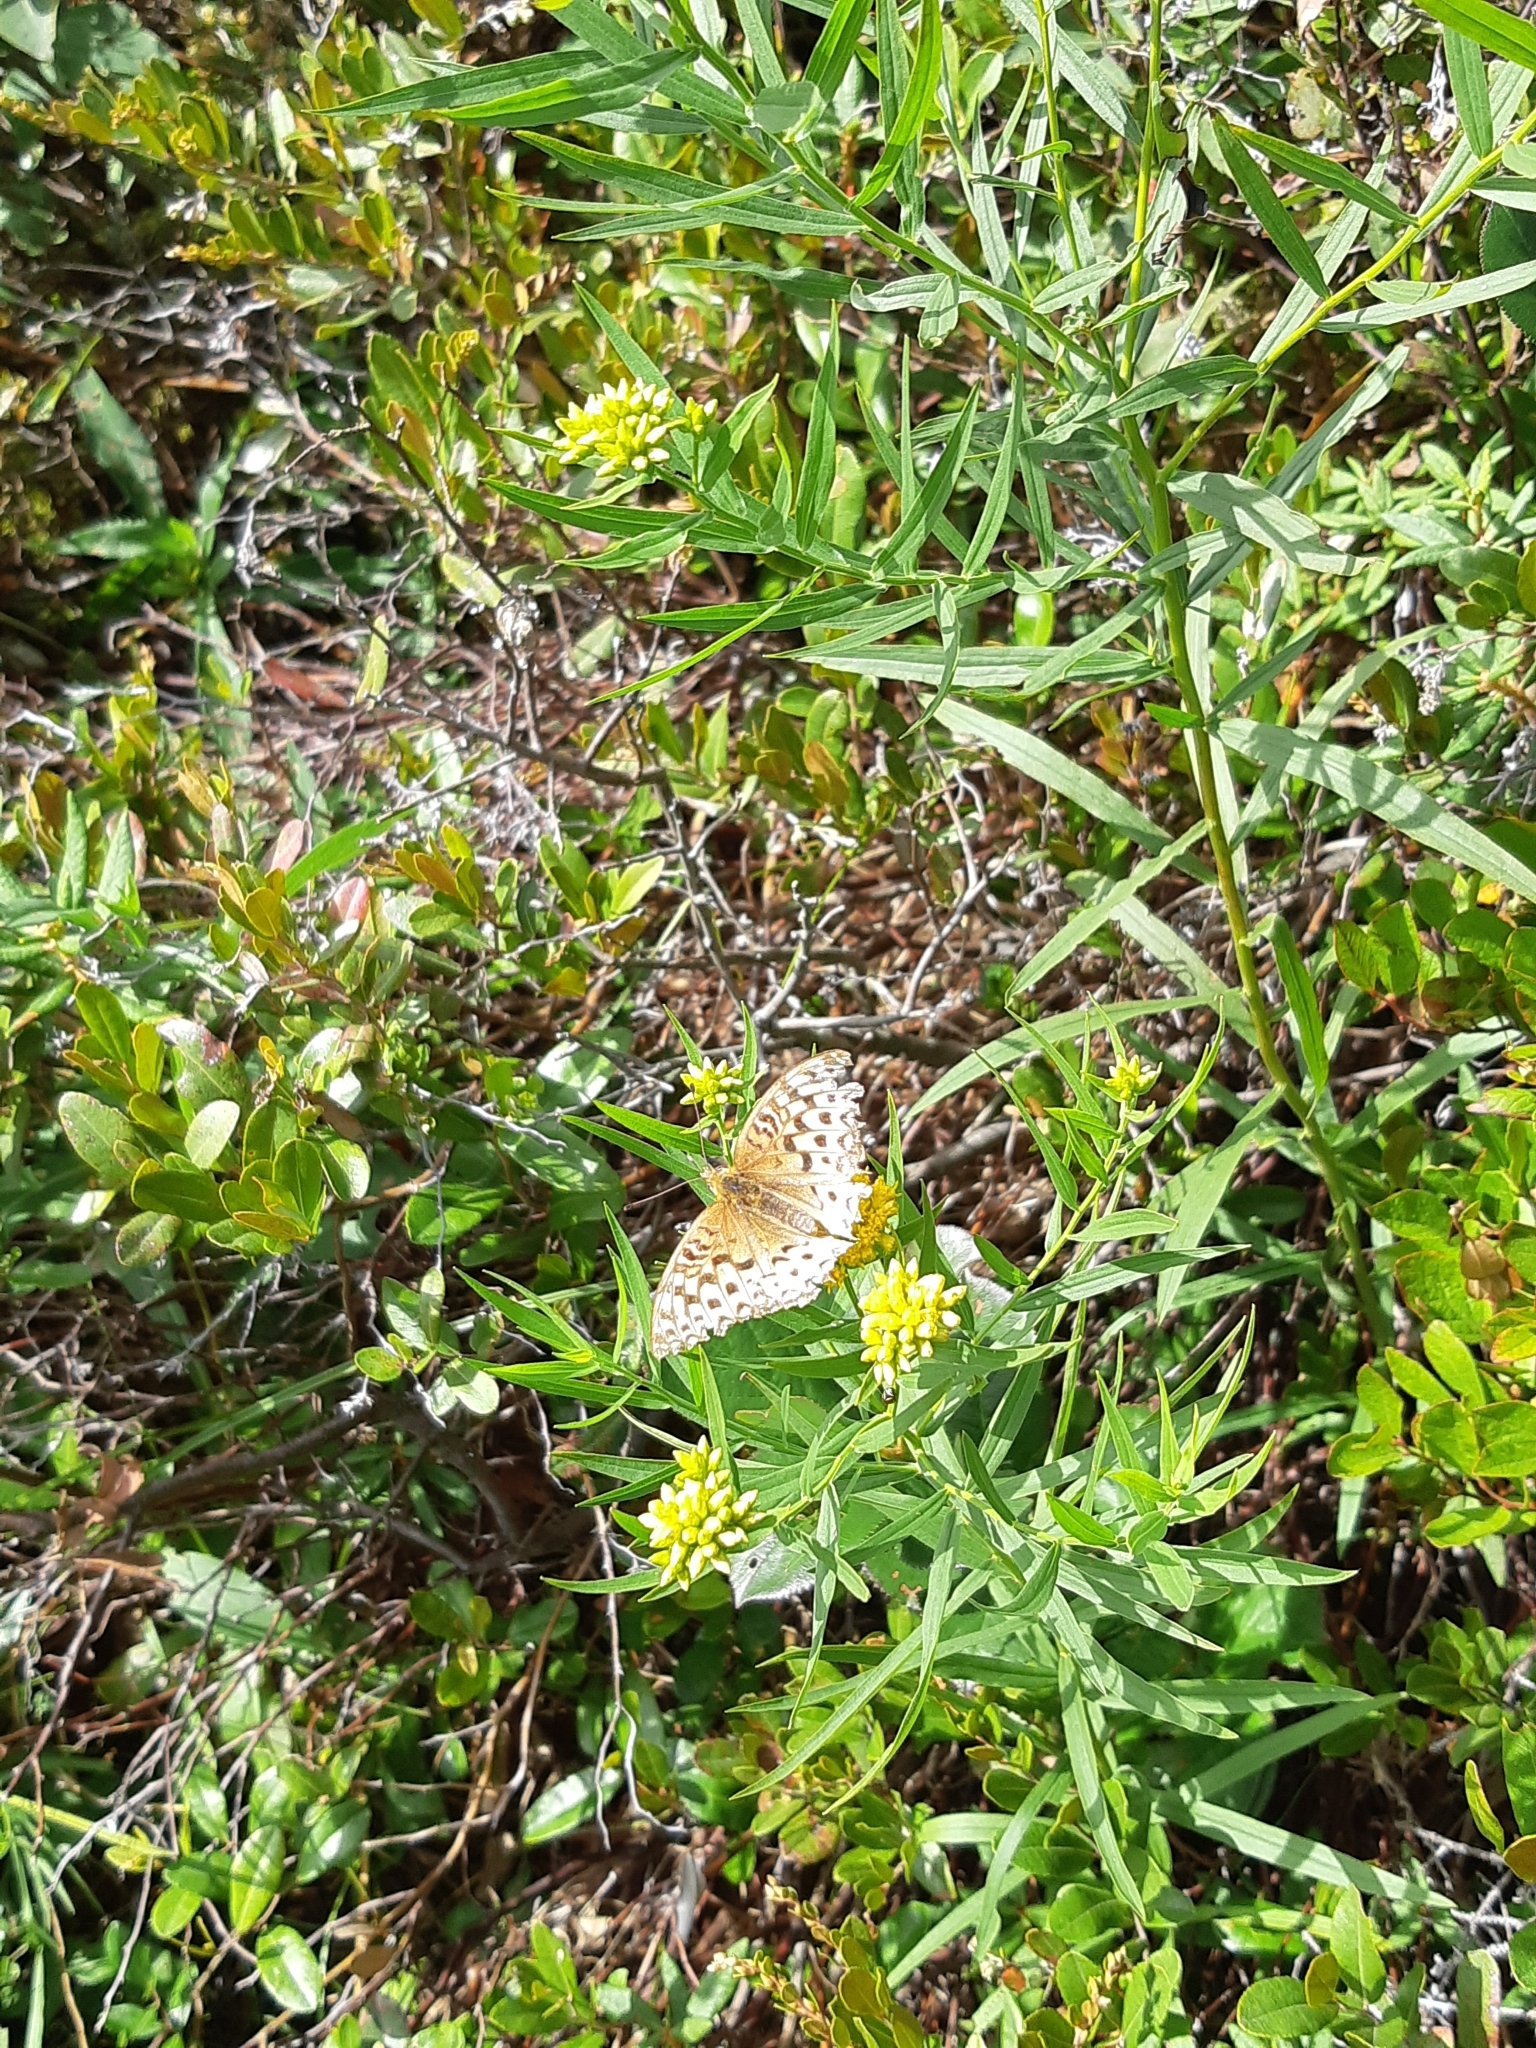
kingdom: Animalia
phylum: Arthropoda
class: Insecta
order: Lepidoptera
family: Nymphalidae
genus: Speyeria
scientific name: Speyeria atlantis
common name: Atlantis fritillary
